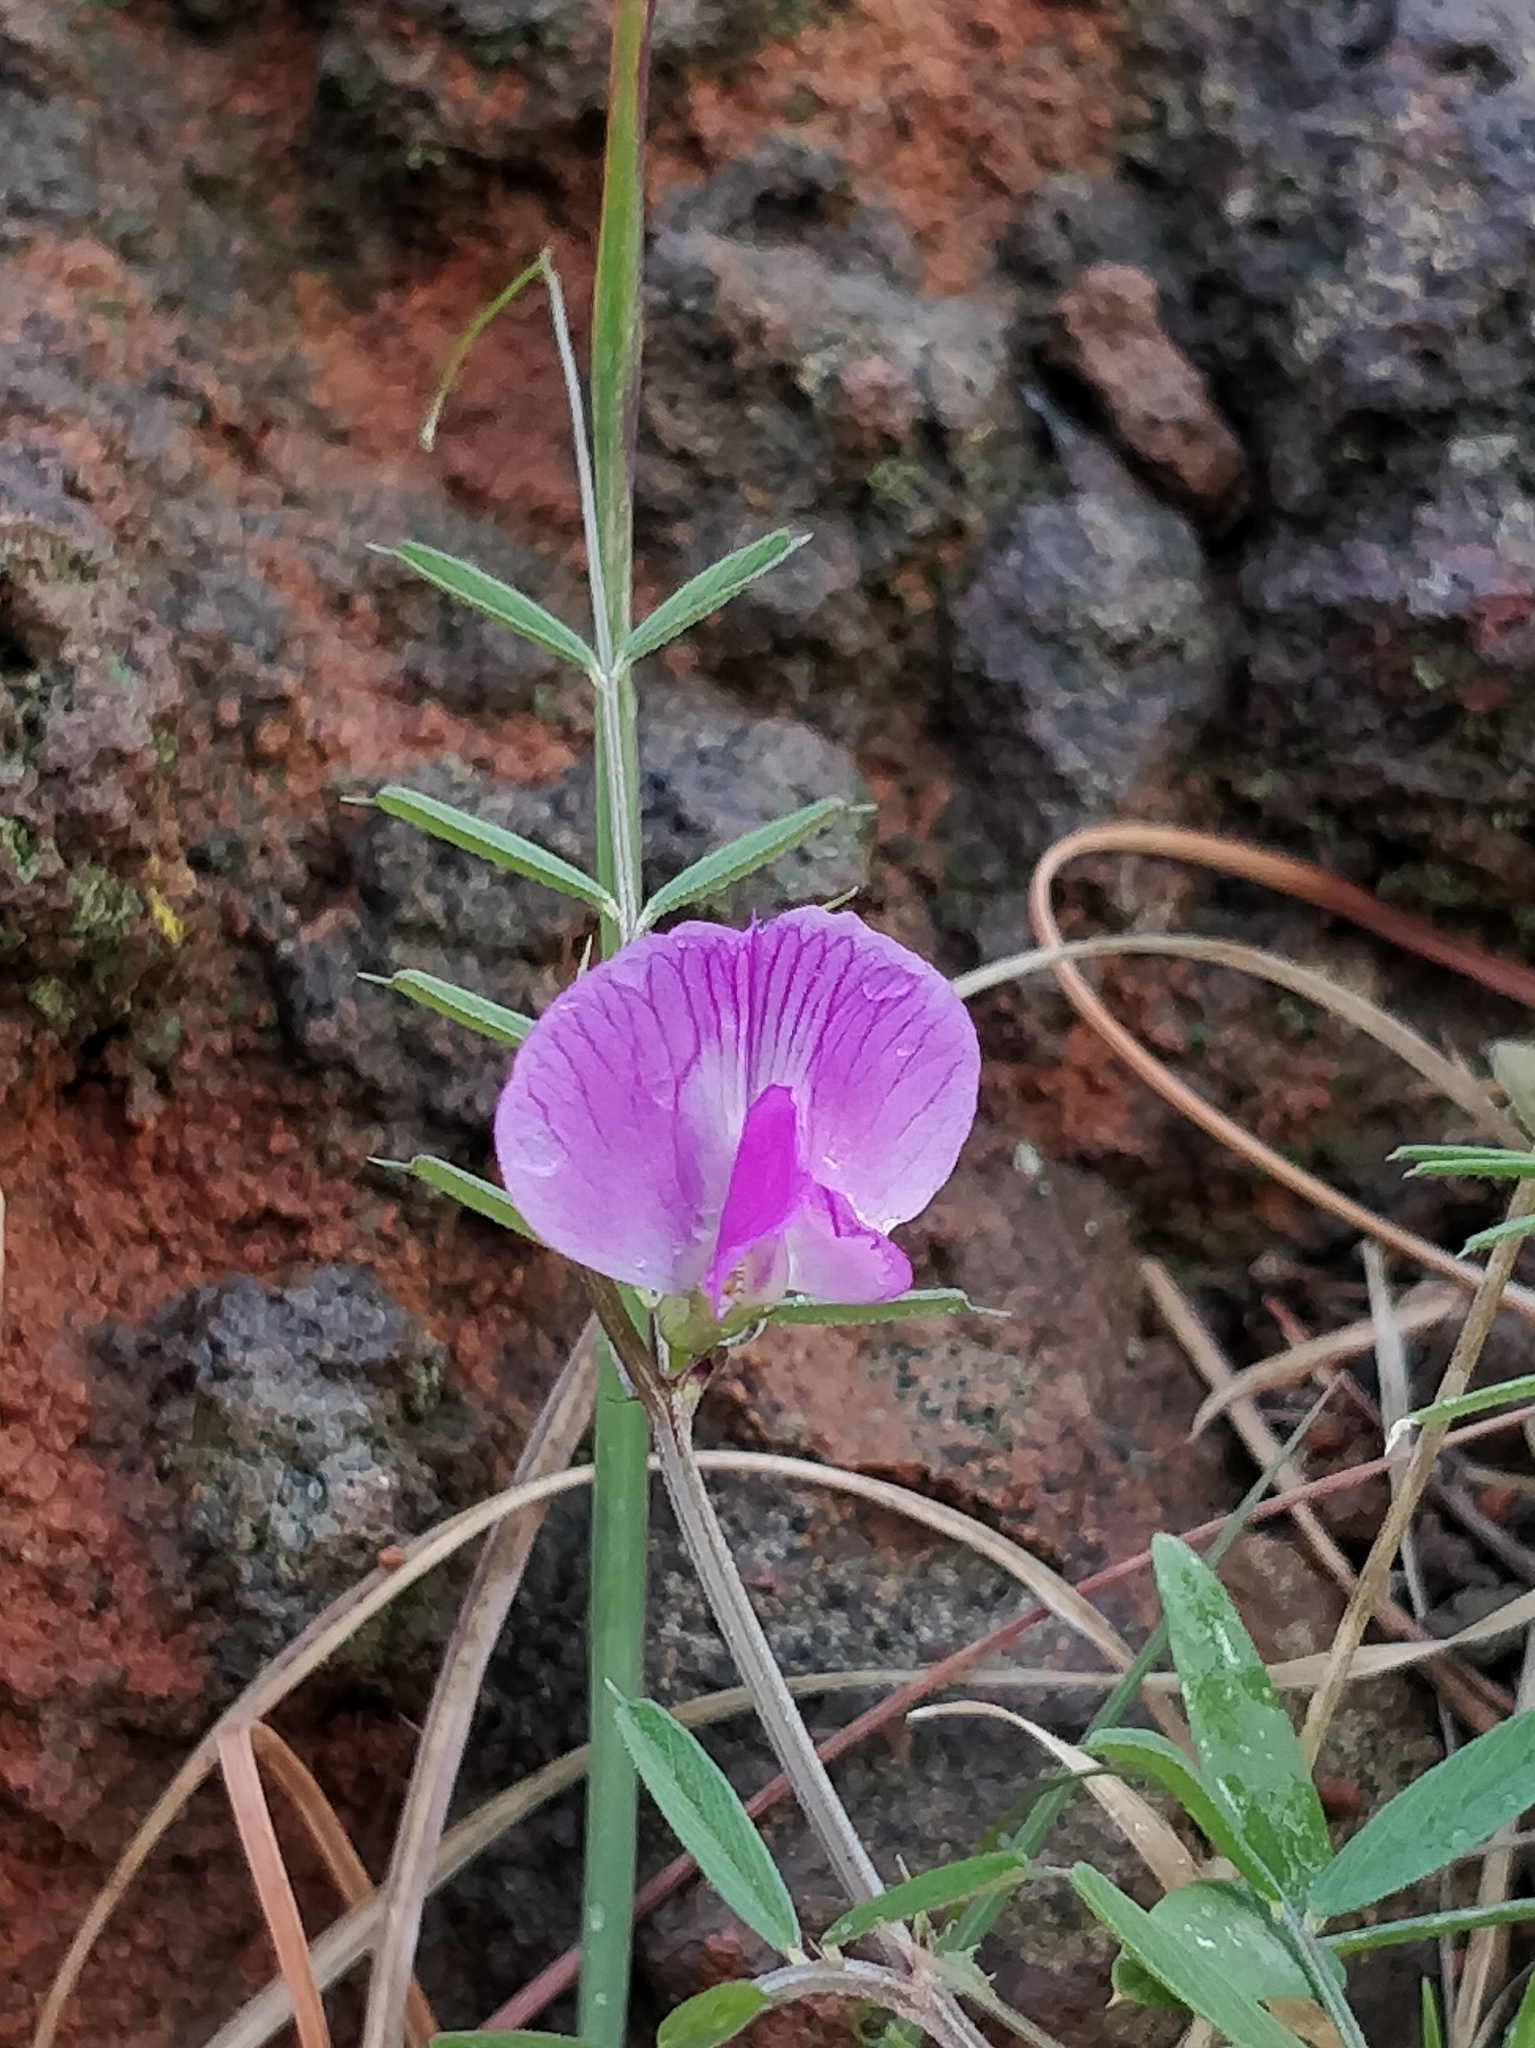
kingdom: Plantae
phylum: Tracheophyta
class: Magnoliopsida
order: Fabales
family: Fabaceae
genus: Vicia
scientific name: Vicia sativa
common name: Garden vetch
